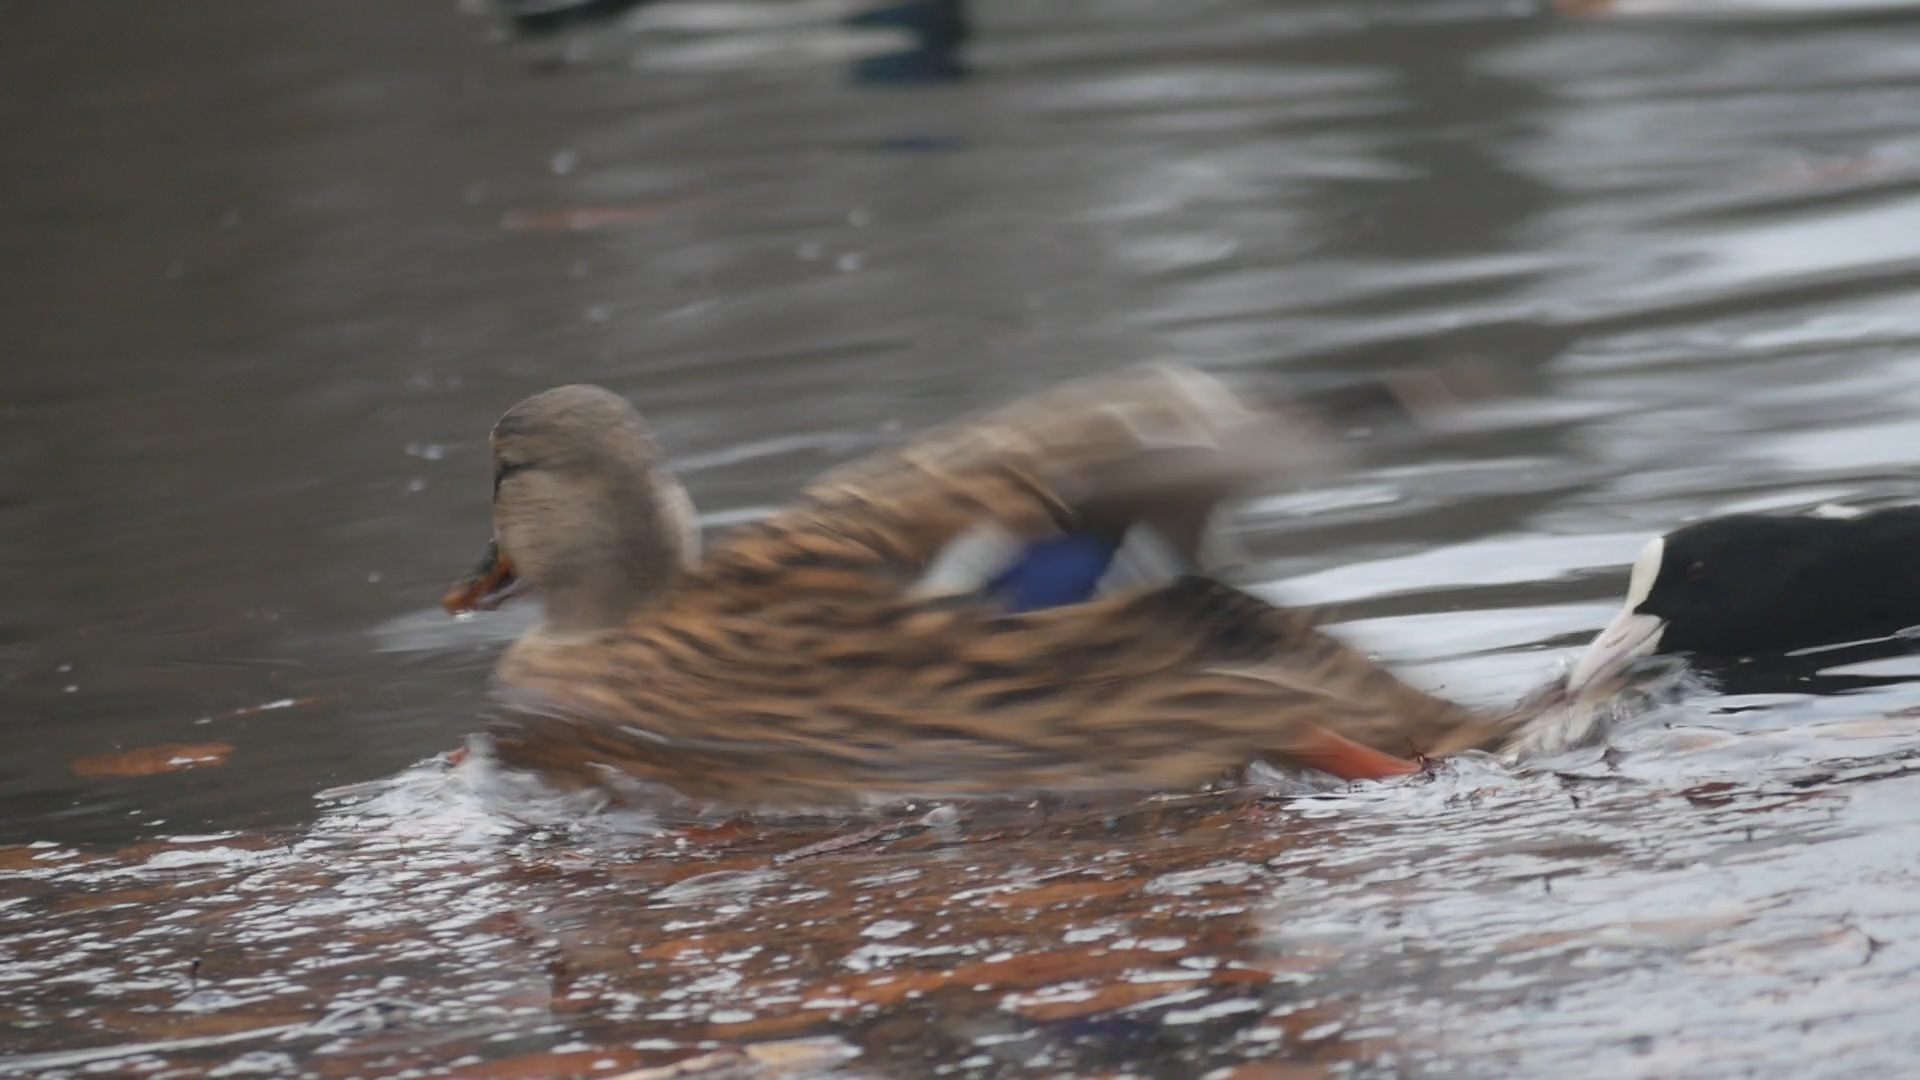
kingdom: Animalia
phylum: Chordata
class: Aves
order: Anseriformes
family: Anatidae
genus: Anas
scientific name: Anas platyrhynchos
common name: Mallard
